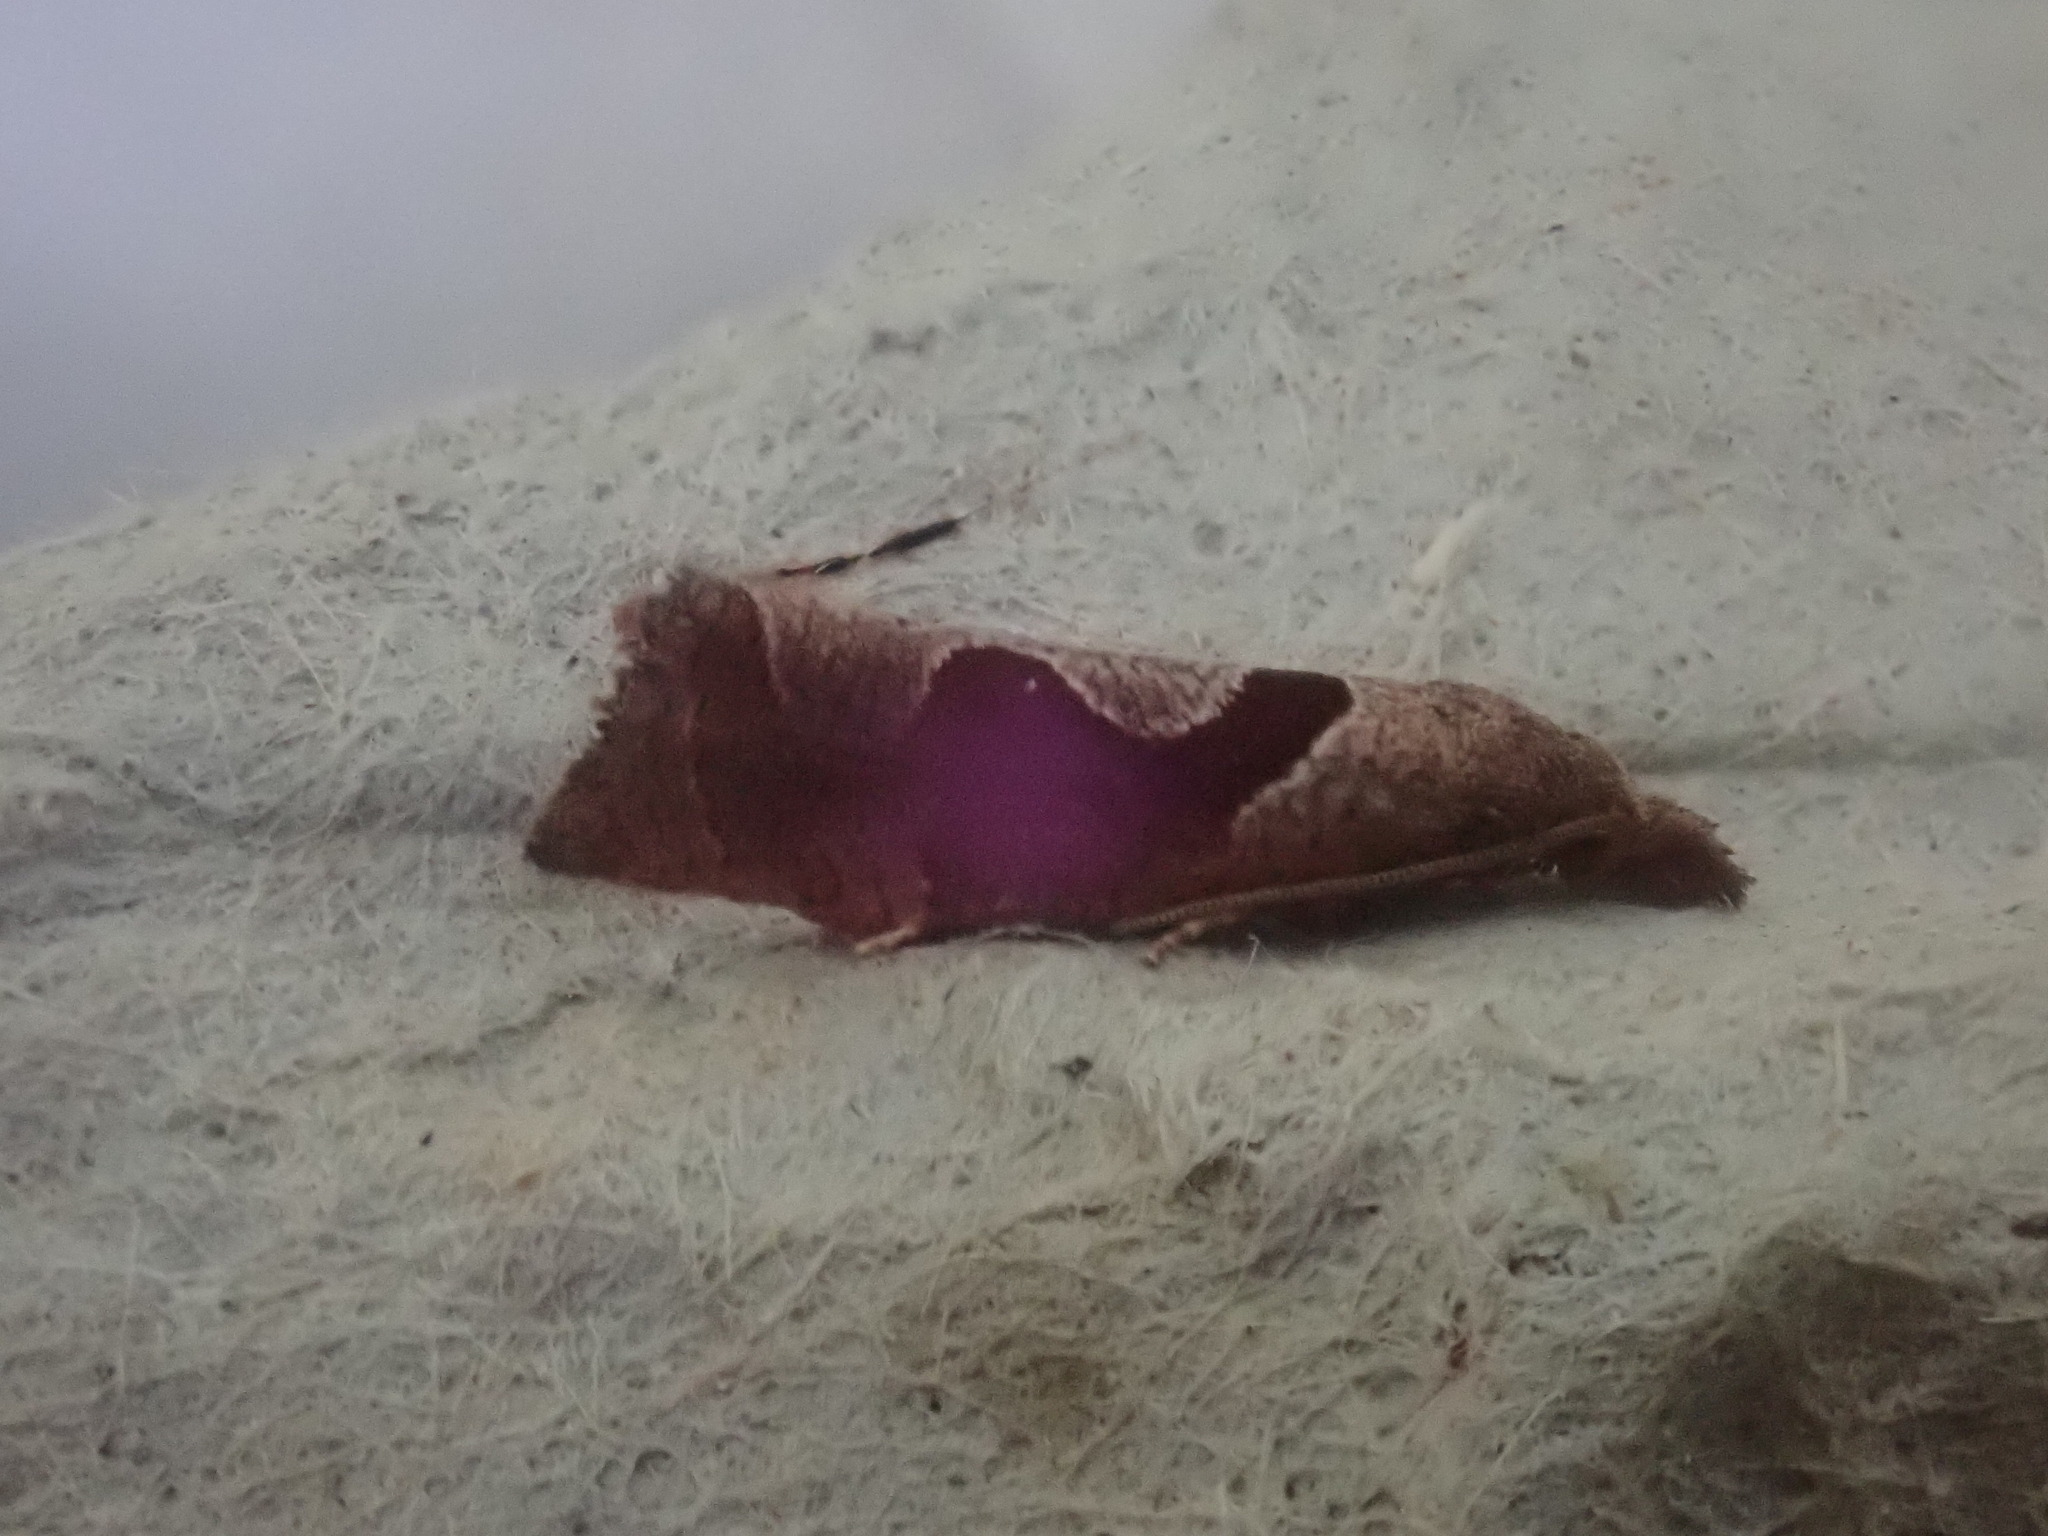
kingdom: Animalia
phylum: Arthropoda
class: Insecta
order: Lepidoptera
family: Tortricidae
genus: Pelochrista
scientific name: Pelochrista similiana
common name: Similar eucosma
